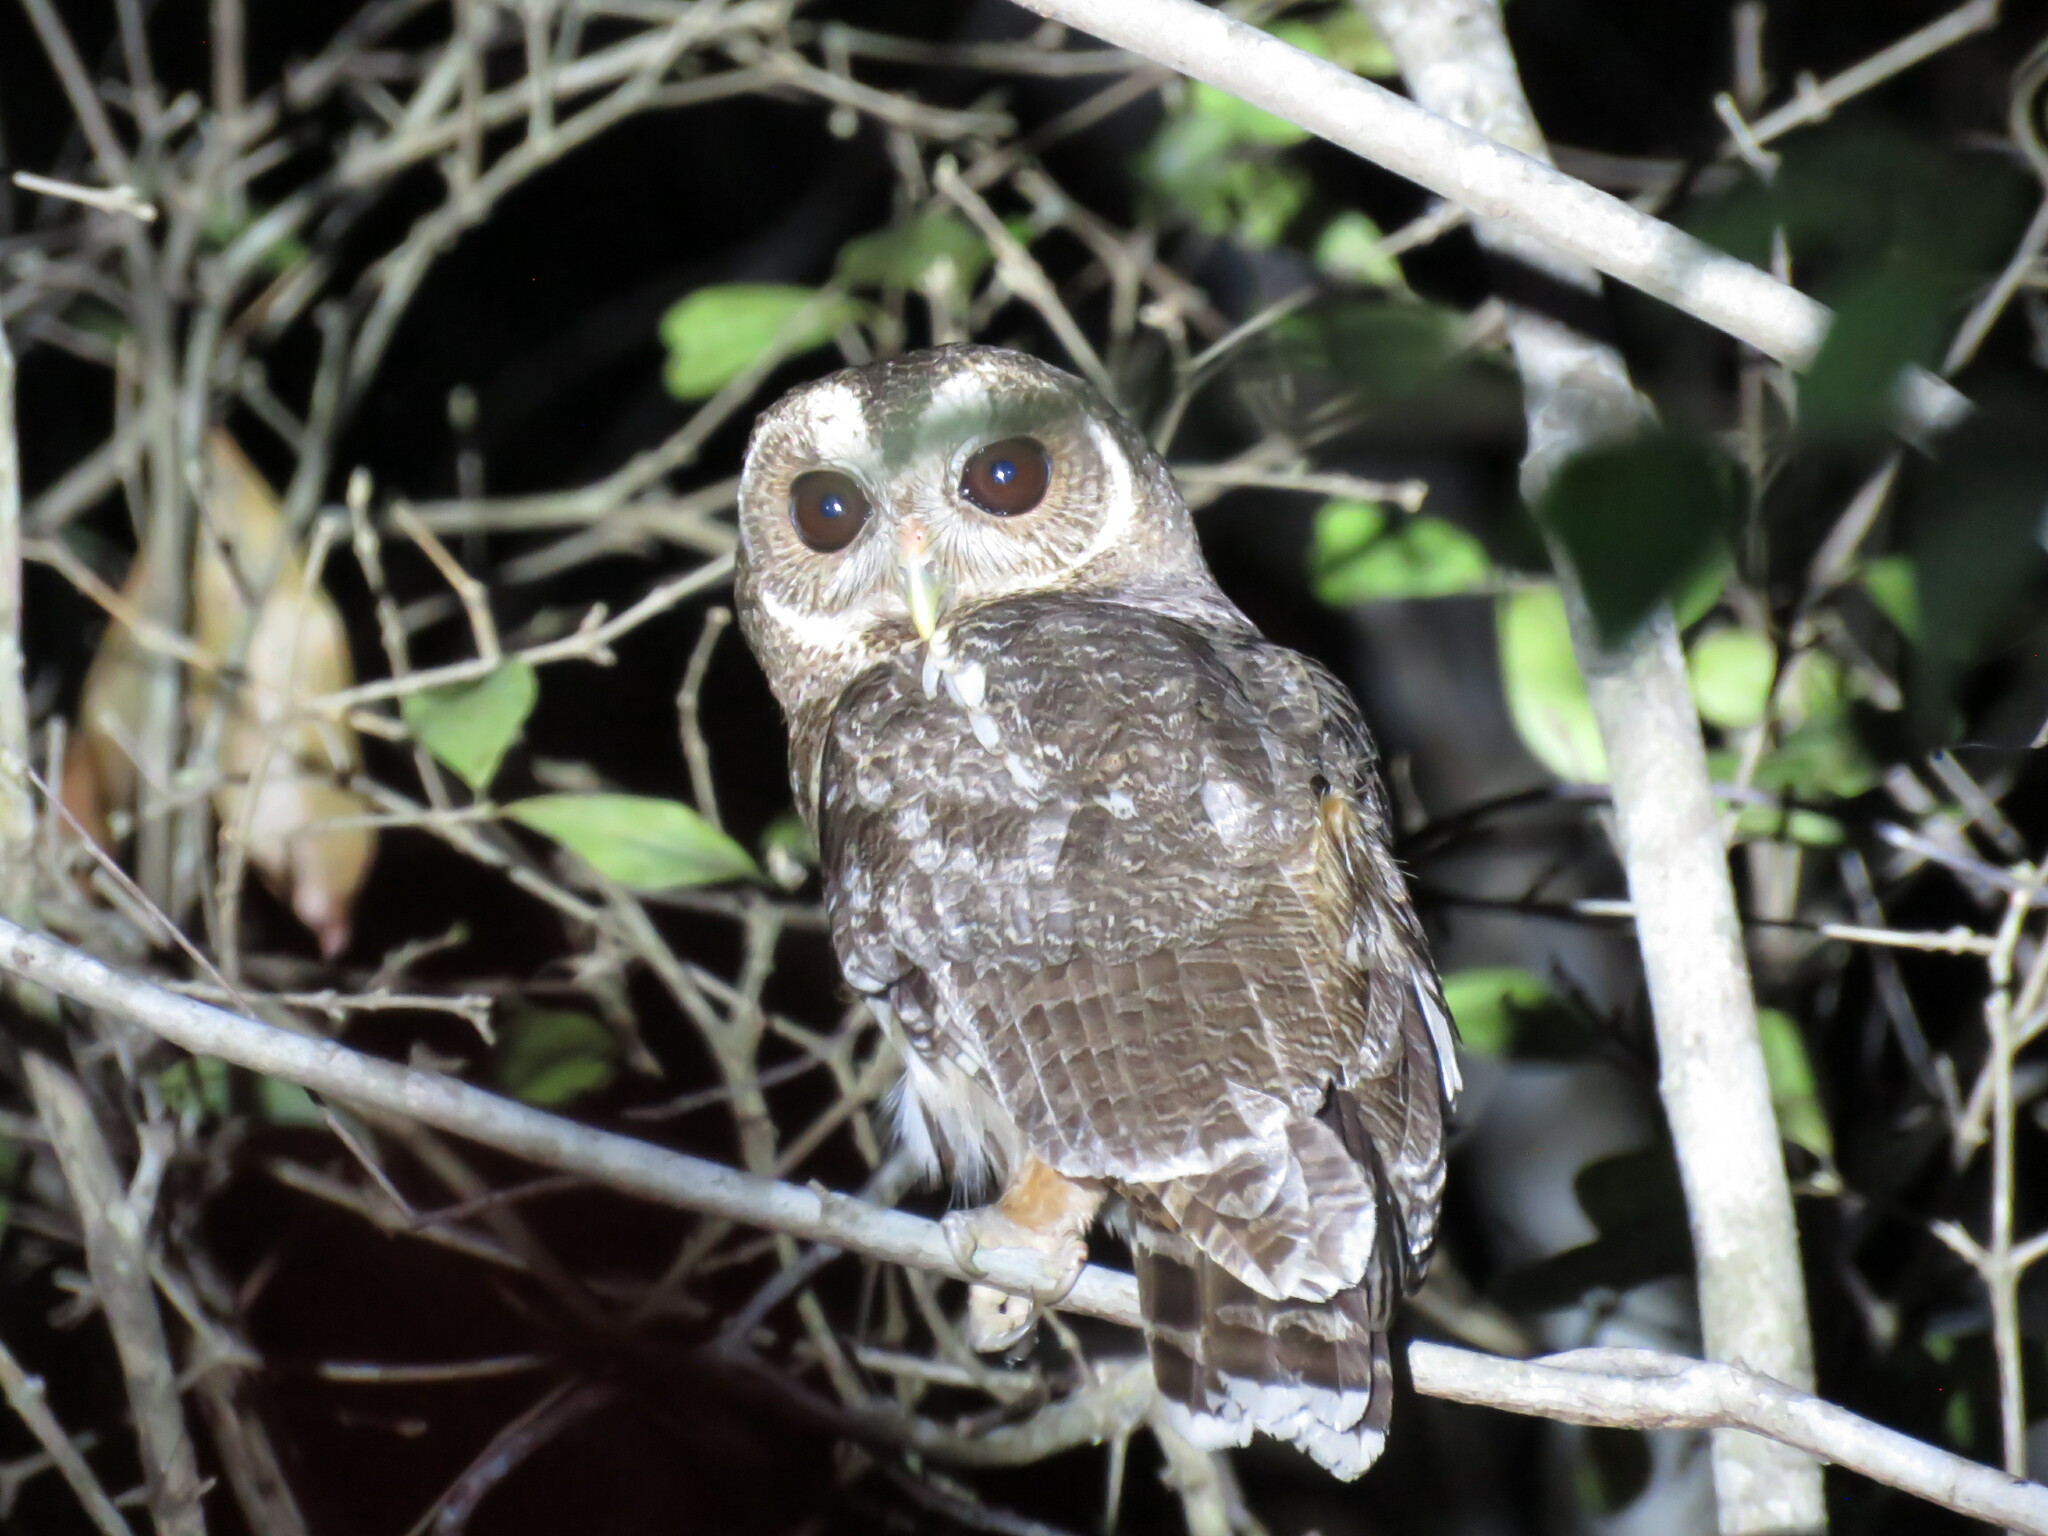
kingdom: Animalia
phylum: Chordata
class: Aves
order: Strigiformes
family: Strigidae
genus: Strix
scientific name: Strix virgata
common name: Mottled owl
